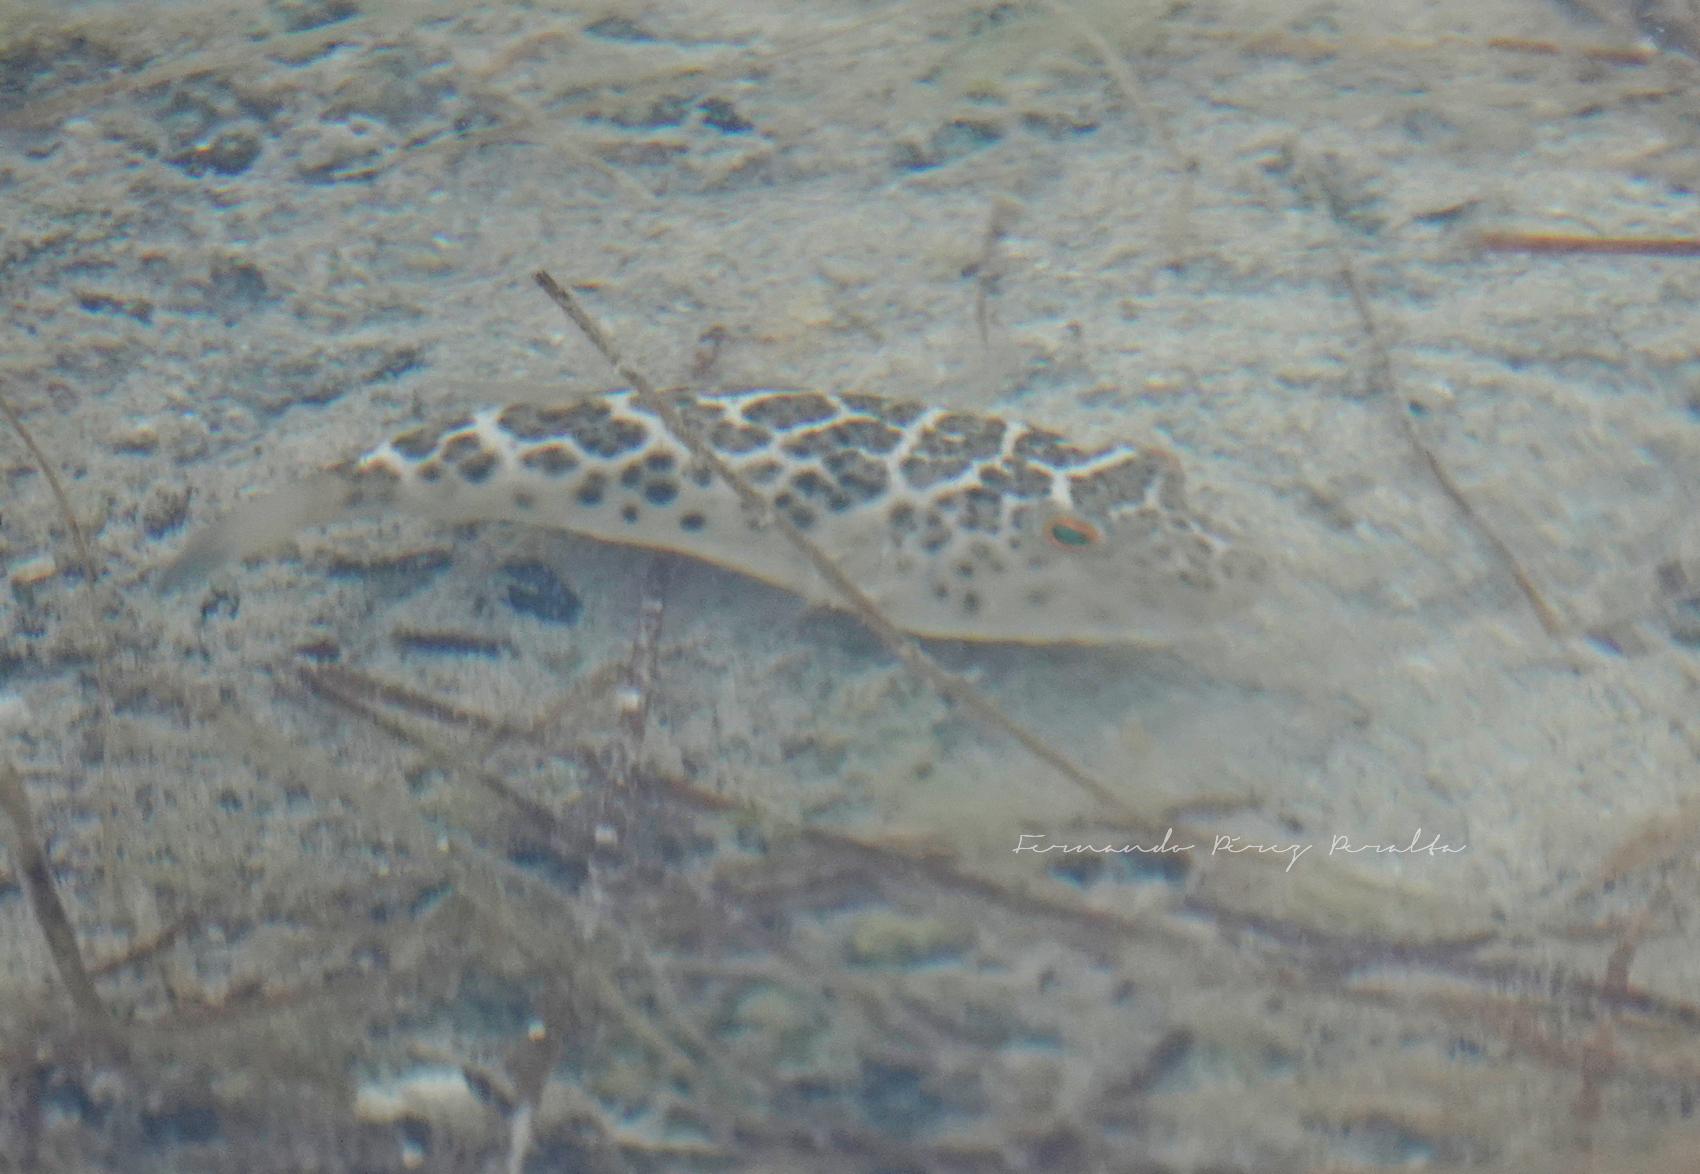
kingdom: Animalia
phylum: Chordata
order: Tetraodontiformes
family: Tetraodontidae
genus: Sphoeroides
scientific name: Sphoeroides testudineus
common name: Checkered puffer
